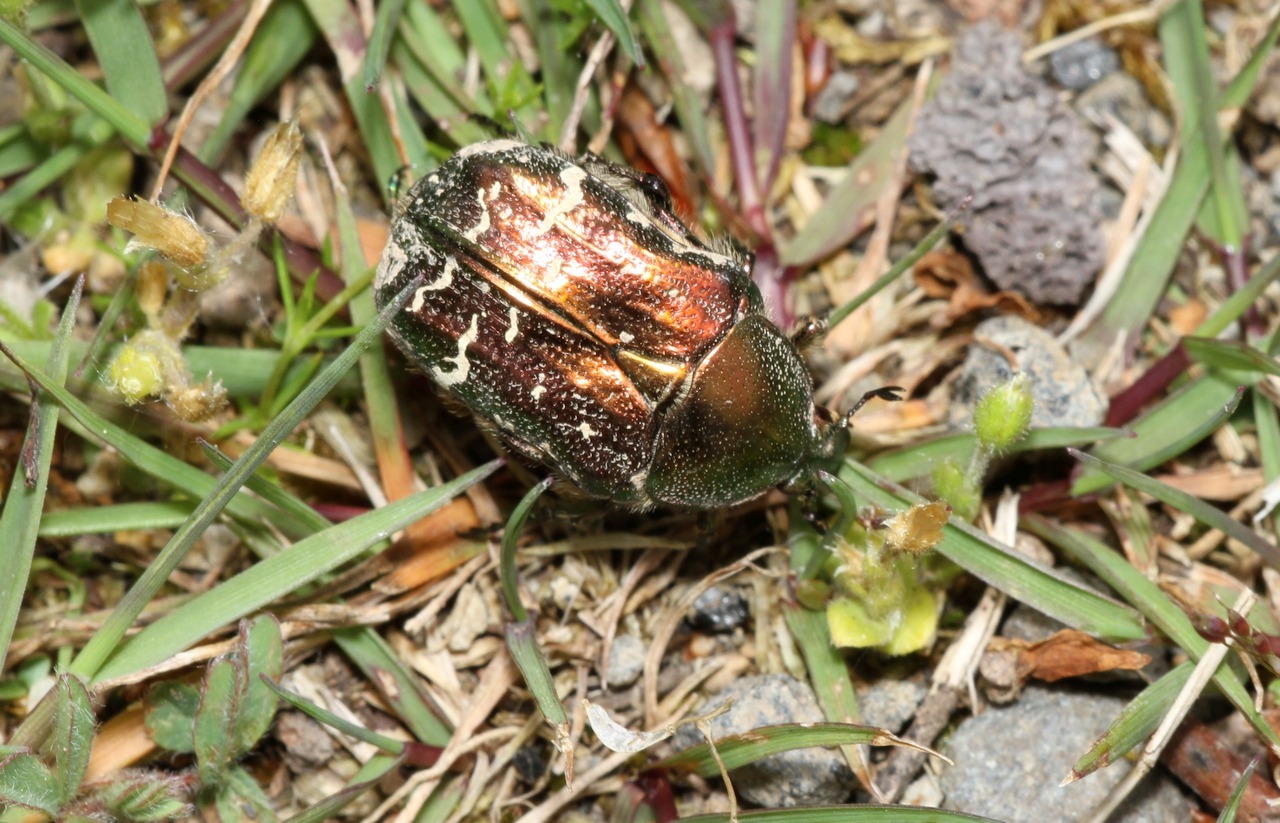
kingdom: Animalia
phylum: Arthropoda
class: Insecta
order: Coleoptera
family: Scarabaeidae
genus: Cetonia
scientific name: Cetonia aurata
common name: Rose chafer
